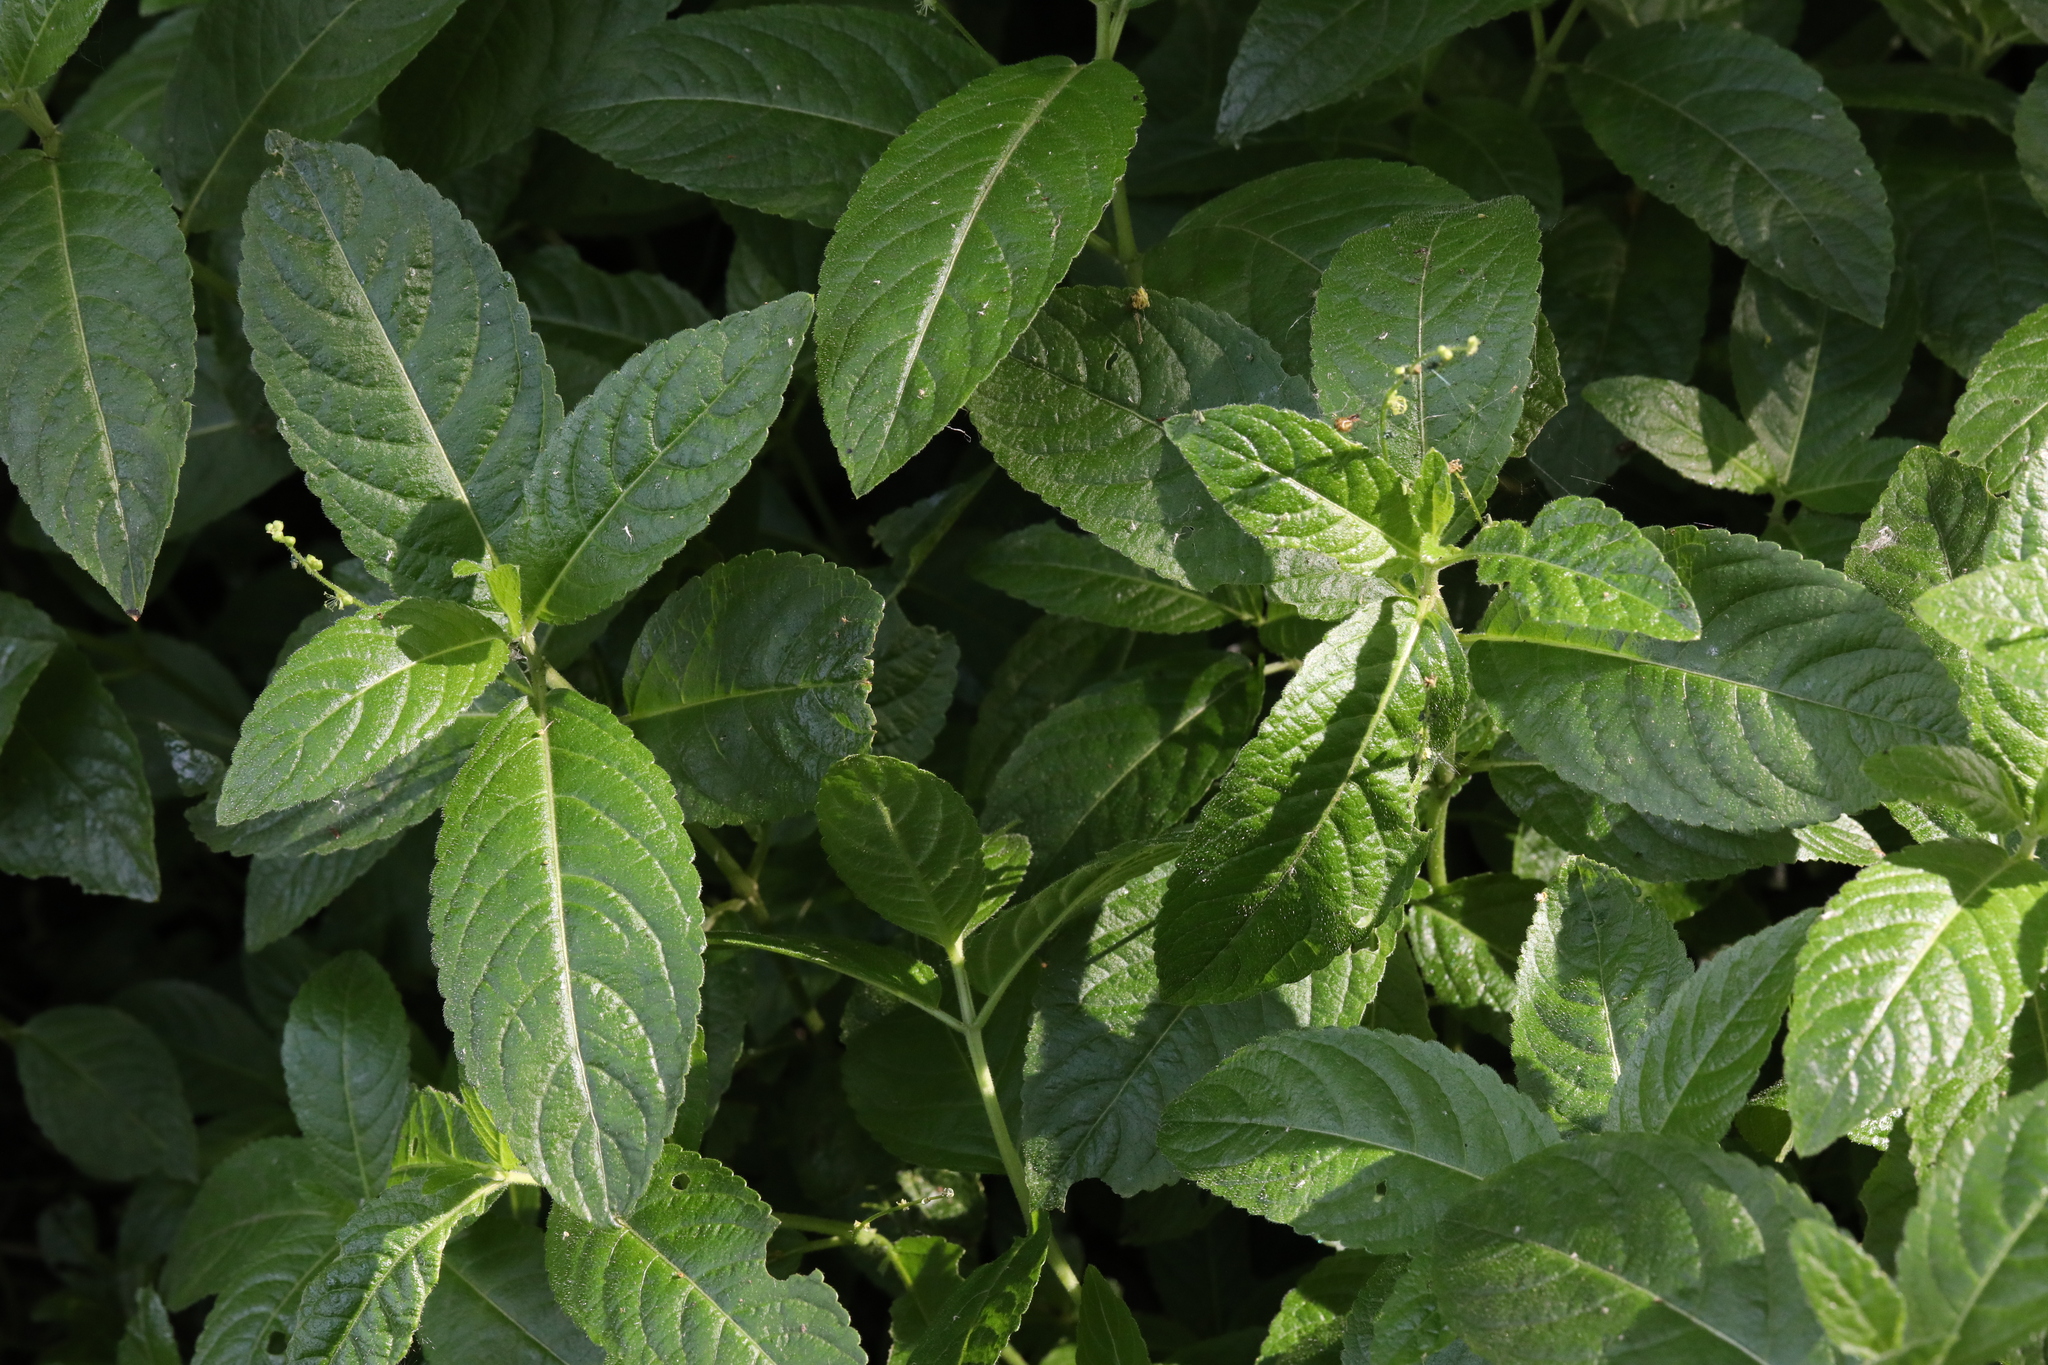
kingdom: Plantae
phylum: Tracheophyta
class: Magnoliopsida
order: Malpighiales
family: Euphorbiaceae
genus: Mercurialis
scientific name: Mercurialis perennis
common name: Dog mercury
